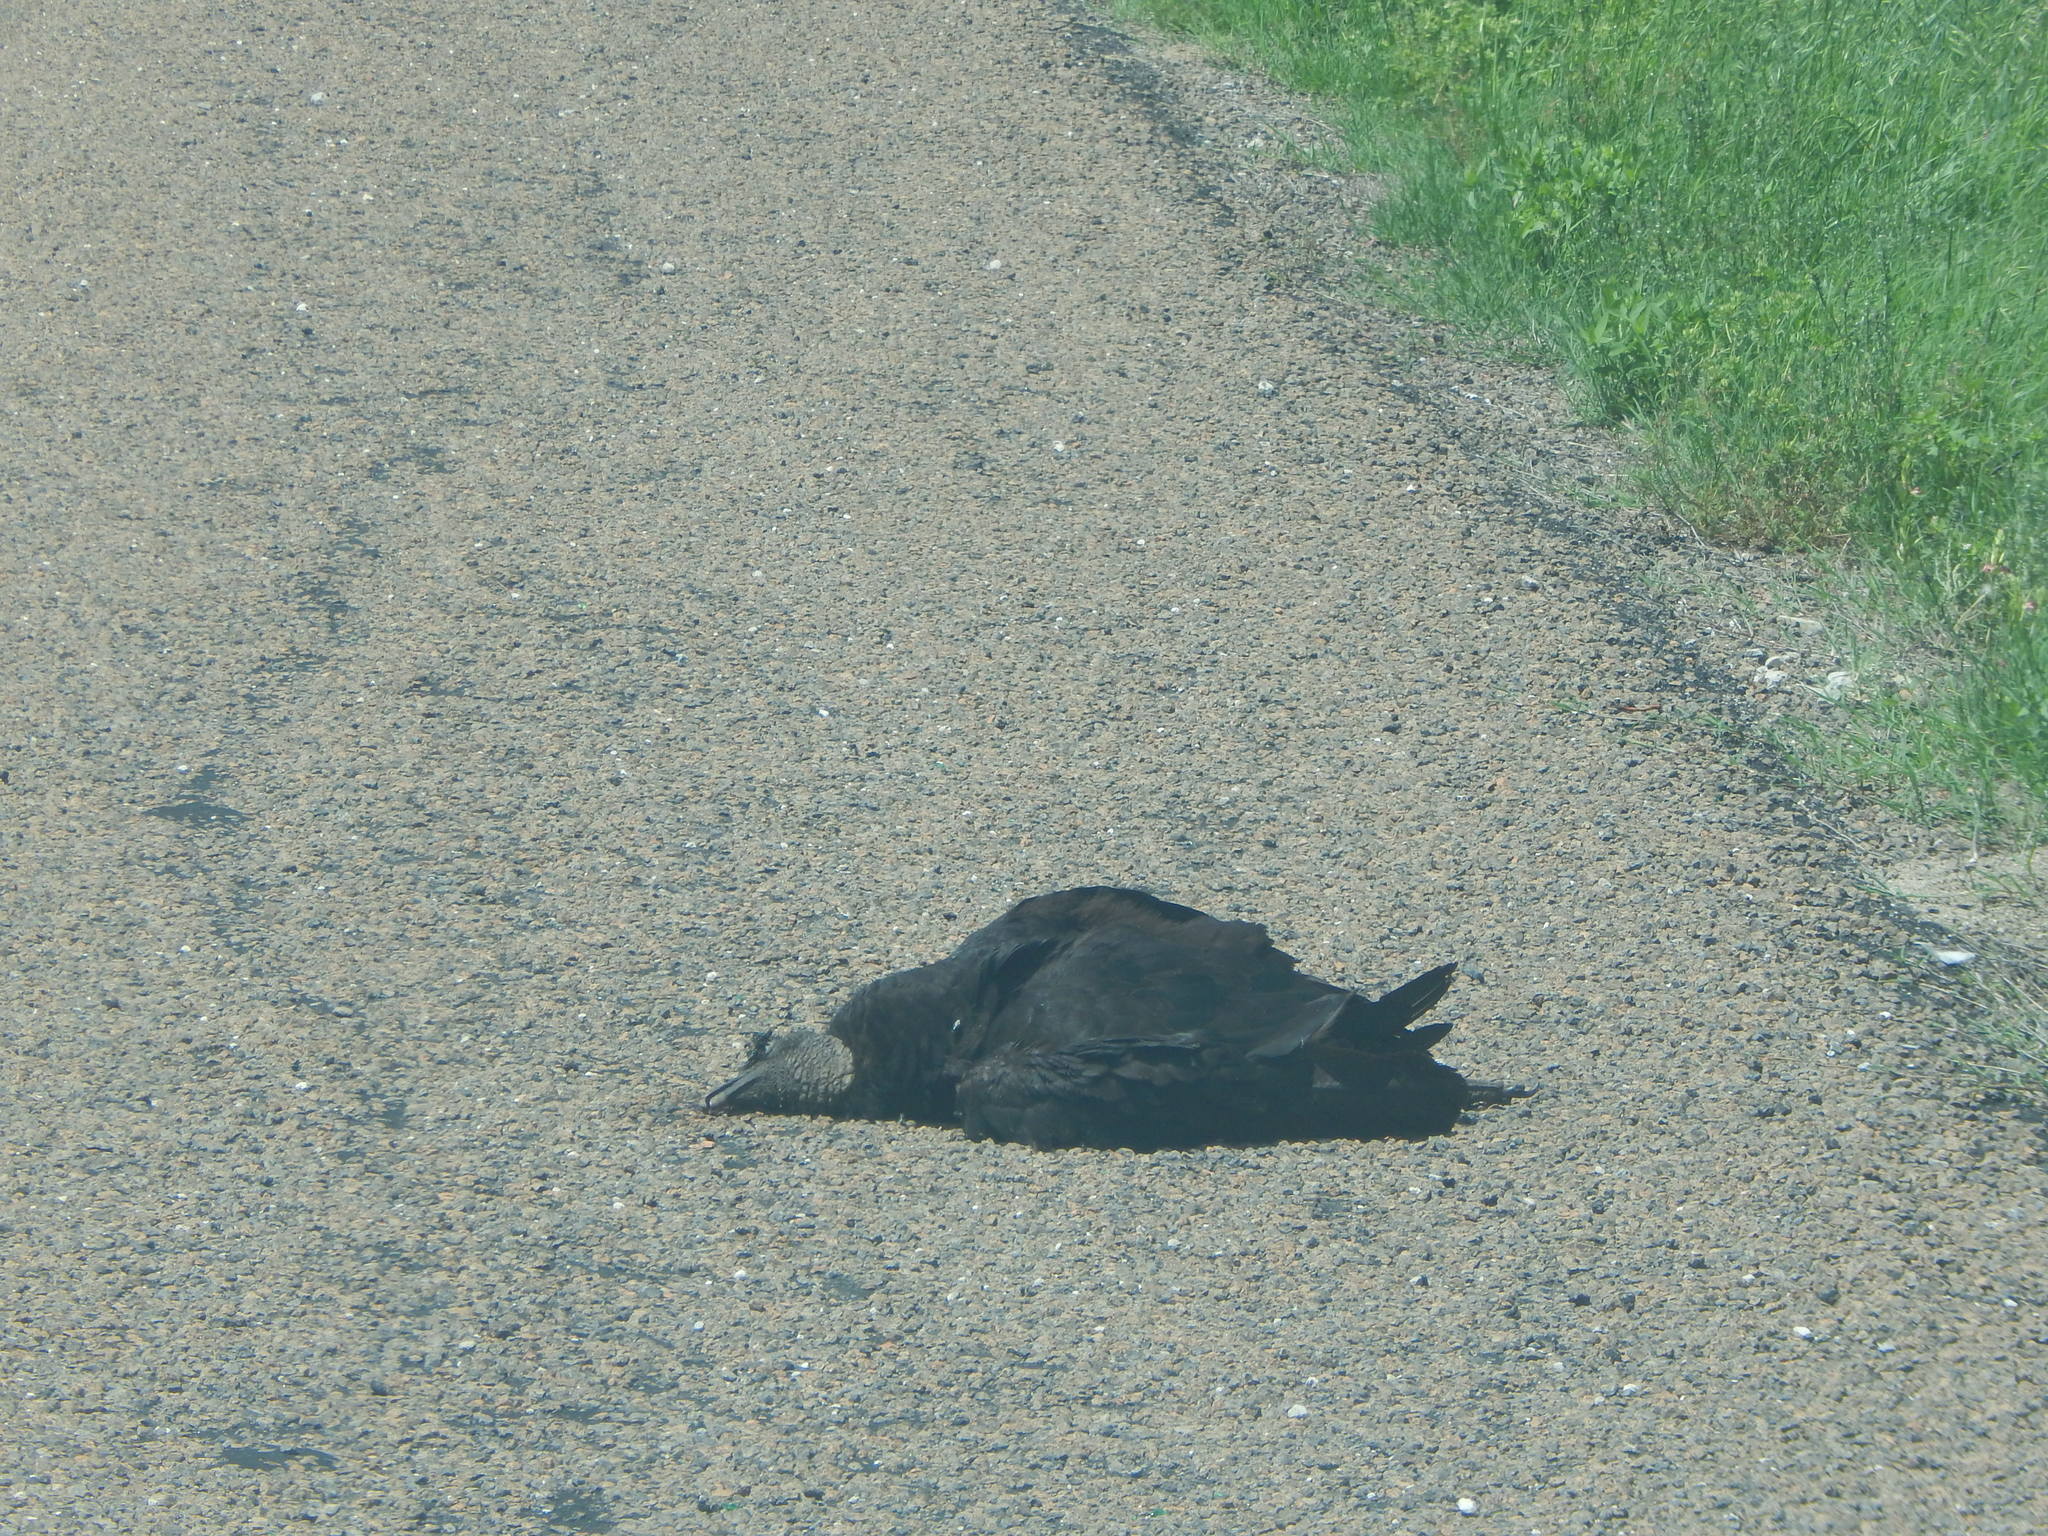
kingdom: Animalia
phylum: Chordata
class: Aves
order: Accipitriformes
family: Cathartidae
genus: Coragyps
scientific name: Coragyps atratus
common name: Black vulture
